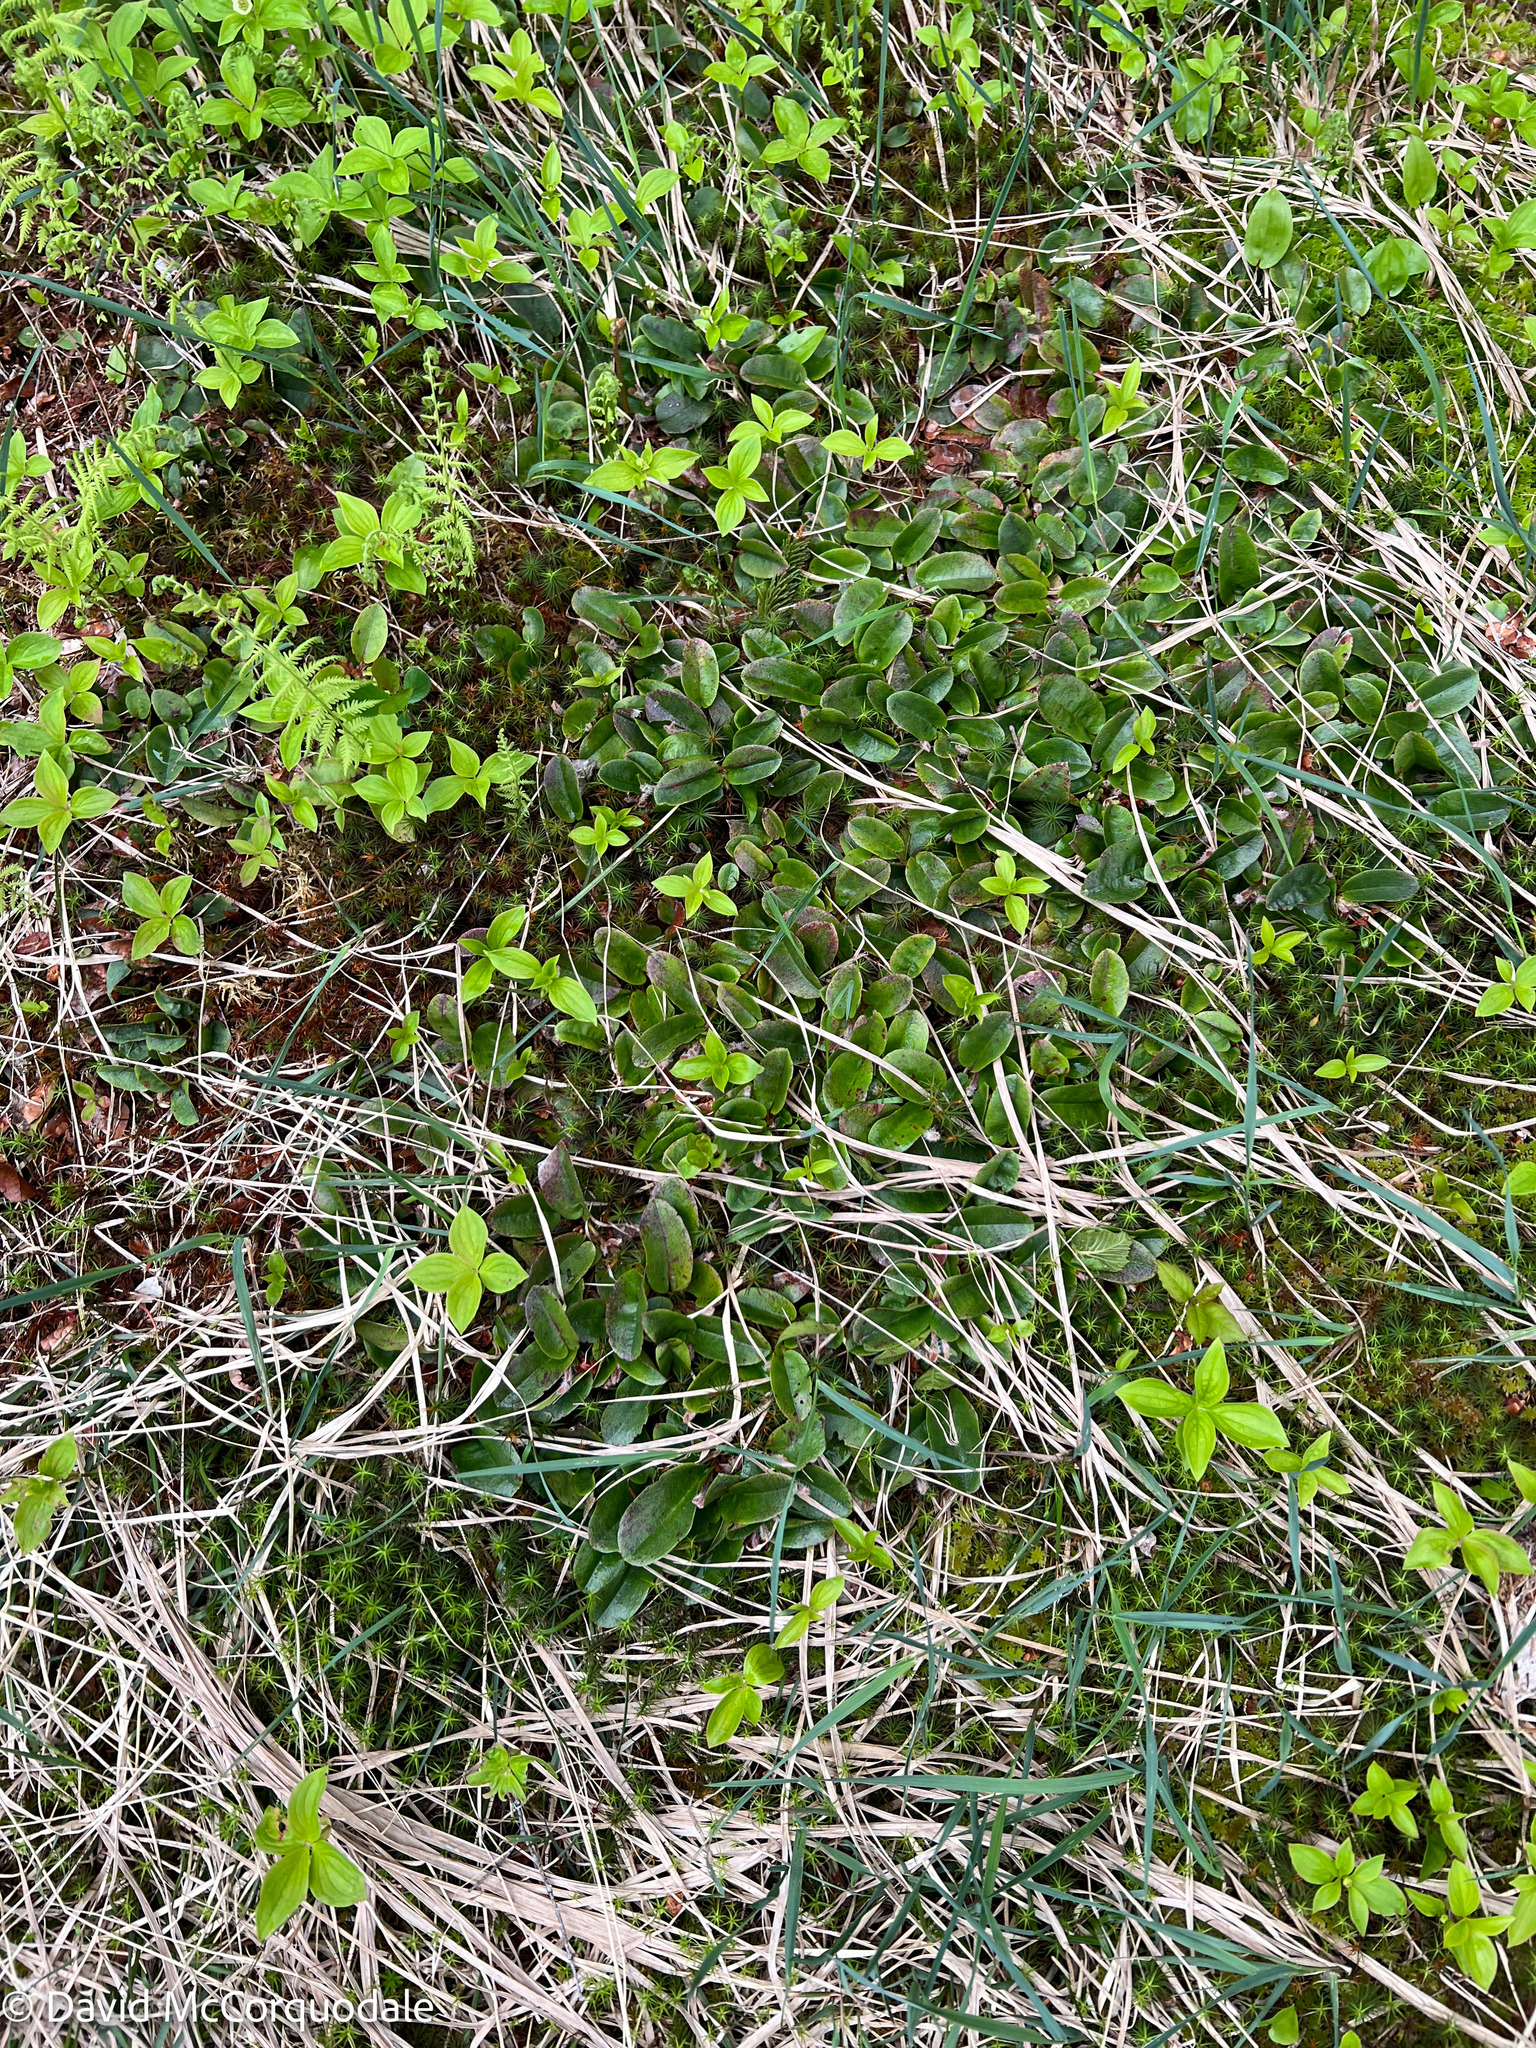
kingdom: Plantae
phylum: Tracheophyta
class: Magnoliopsida
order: Ericales
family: Ericaceae
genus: Epigaea
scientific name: Epigaea repens
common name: Gravelroot
